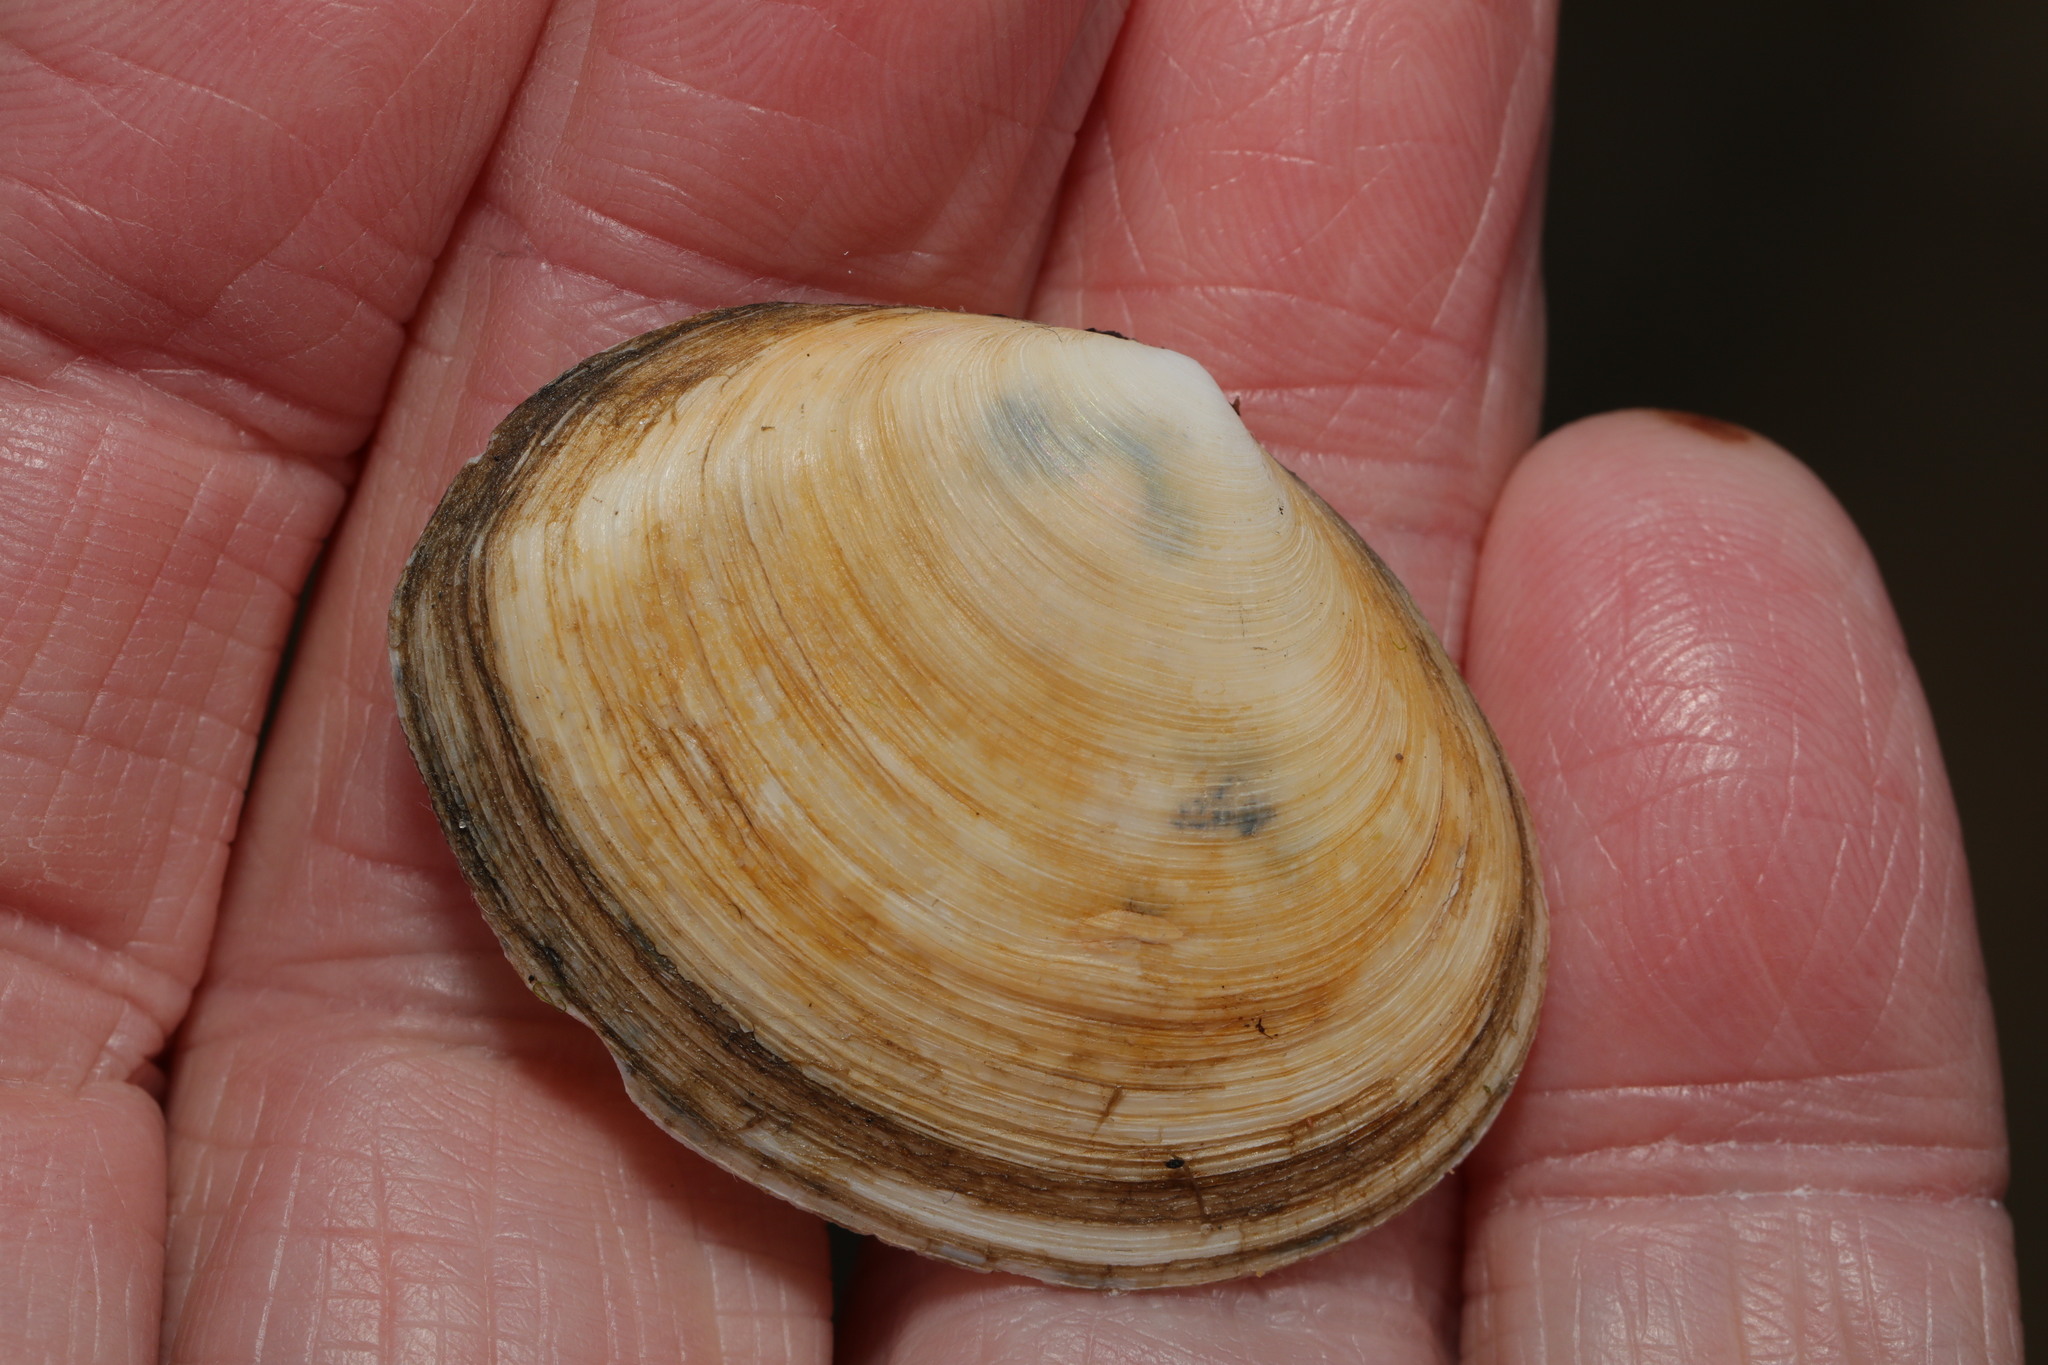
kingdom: Animalia
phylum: Mollusca
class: Bivalvia
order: Cardiida
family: Semelidae
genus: Scrobicularia
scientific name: Scrobicularia plana
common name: Peppery furrow shell
